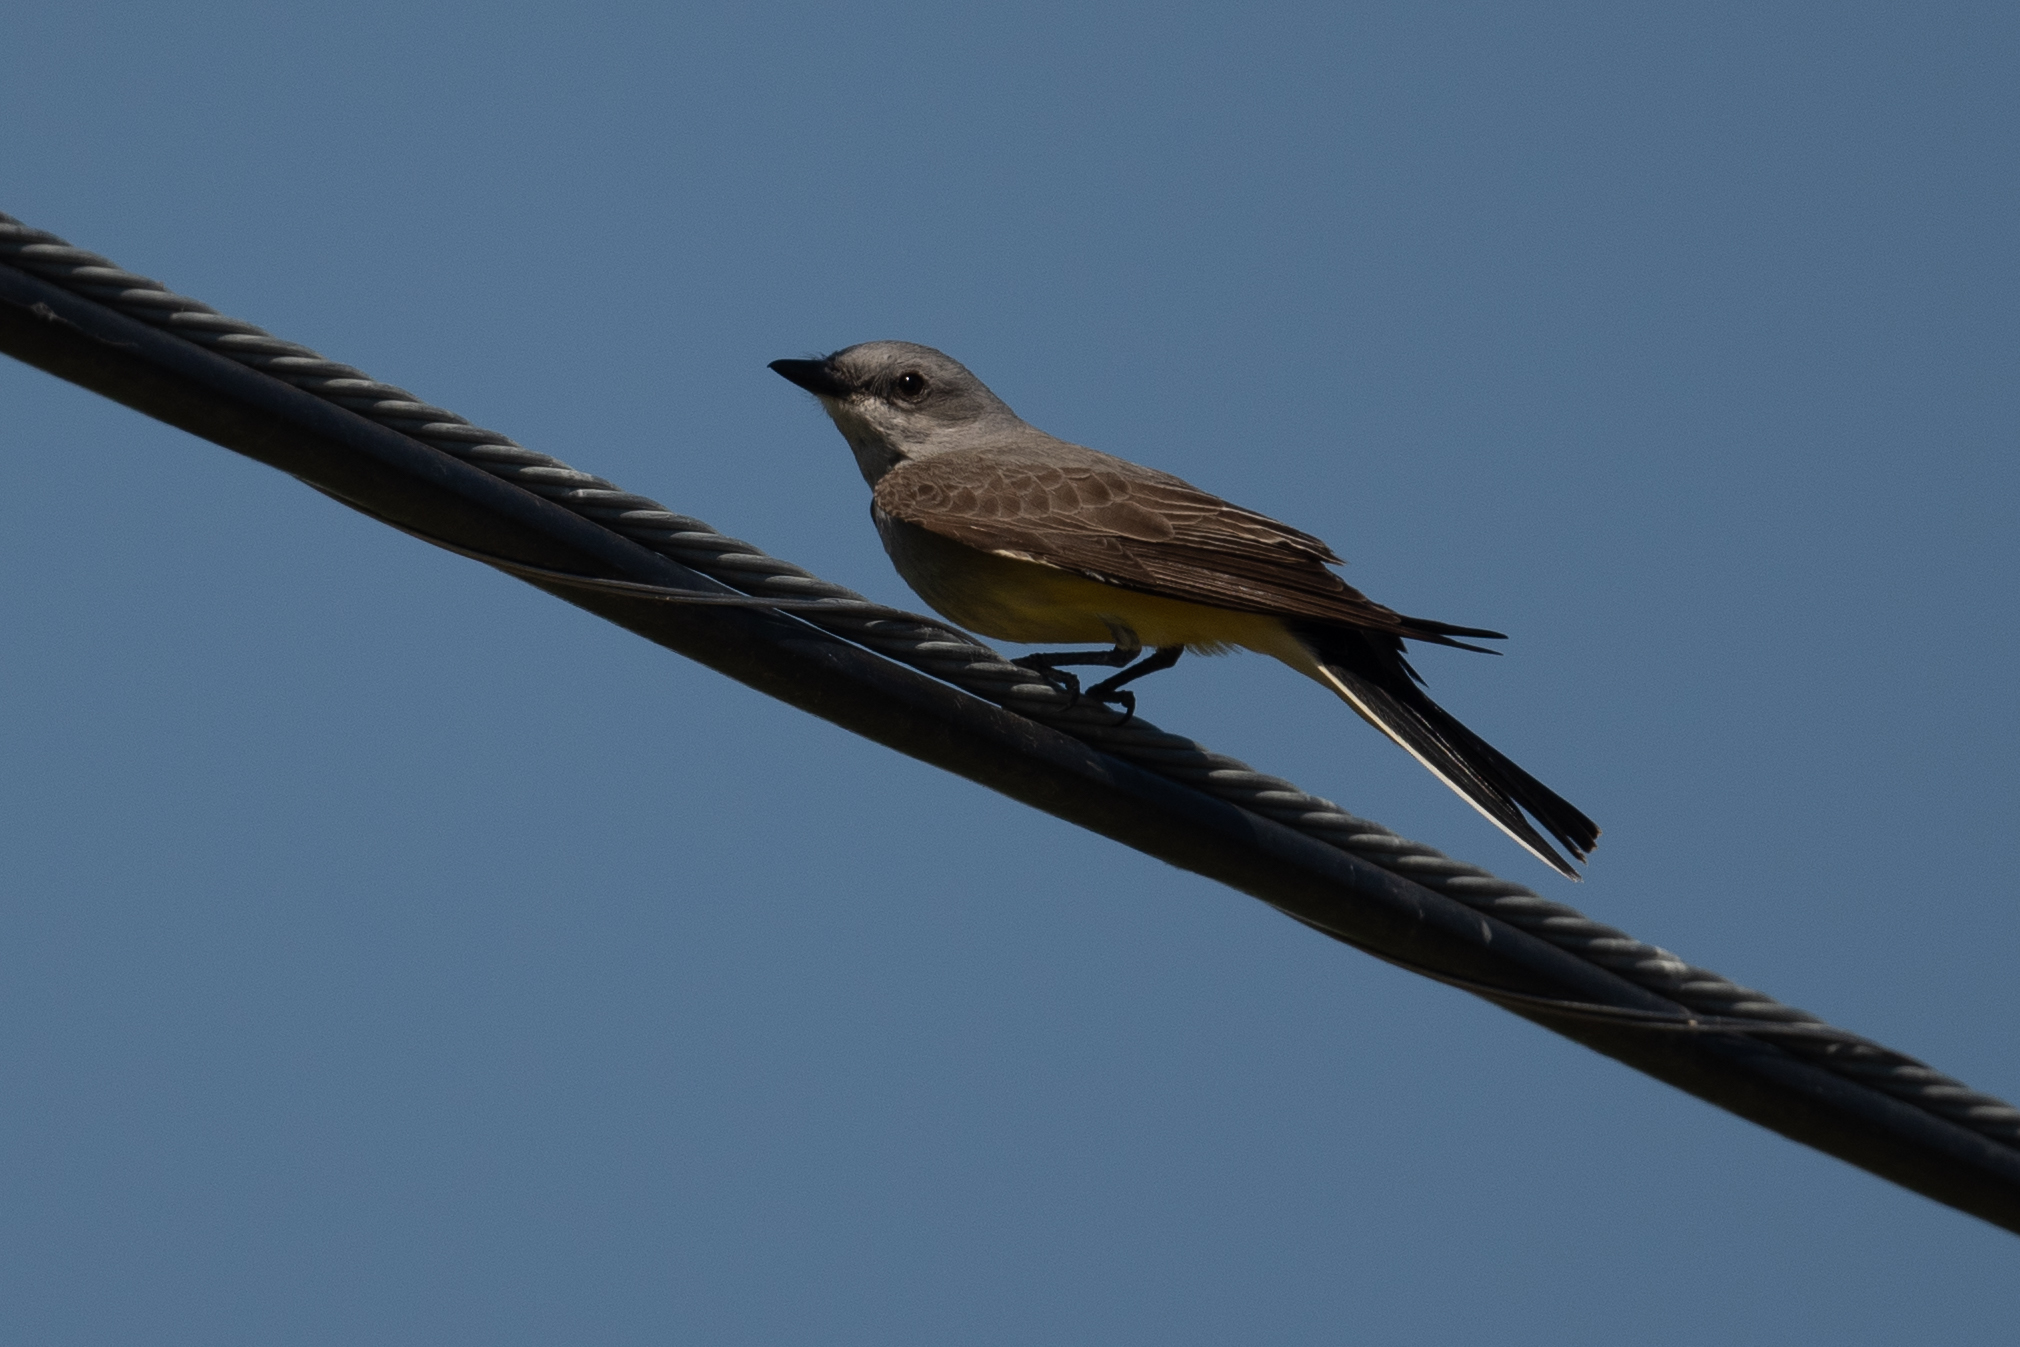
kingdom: Animalia
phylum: Chordata
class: Aves
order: Passeriformes
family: Tyrannidae
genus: Tyrannus
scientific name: Tyrannus verticalis
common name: Western kingbird
